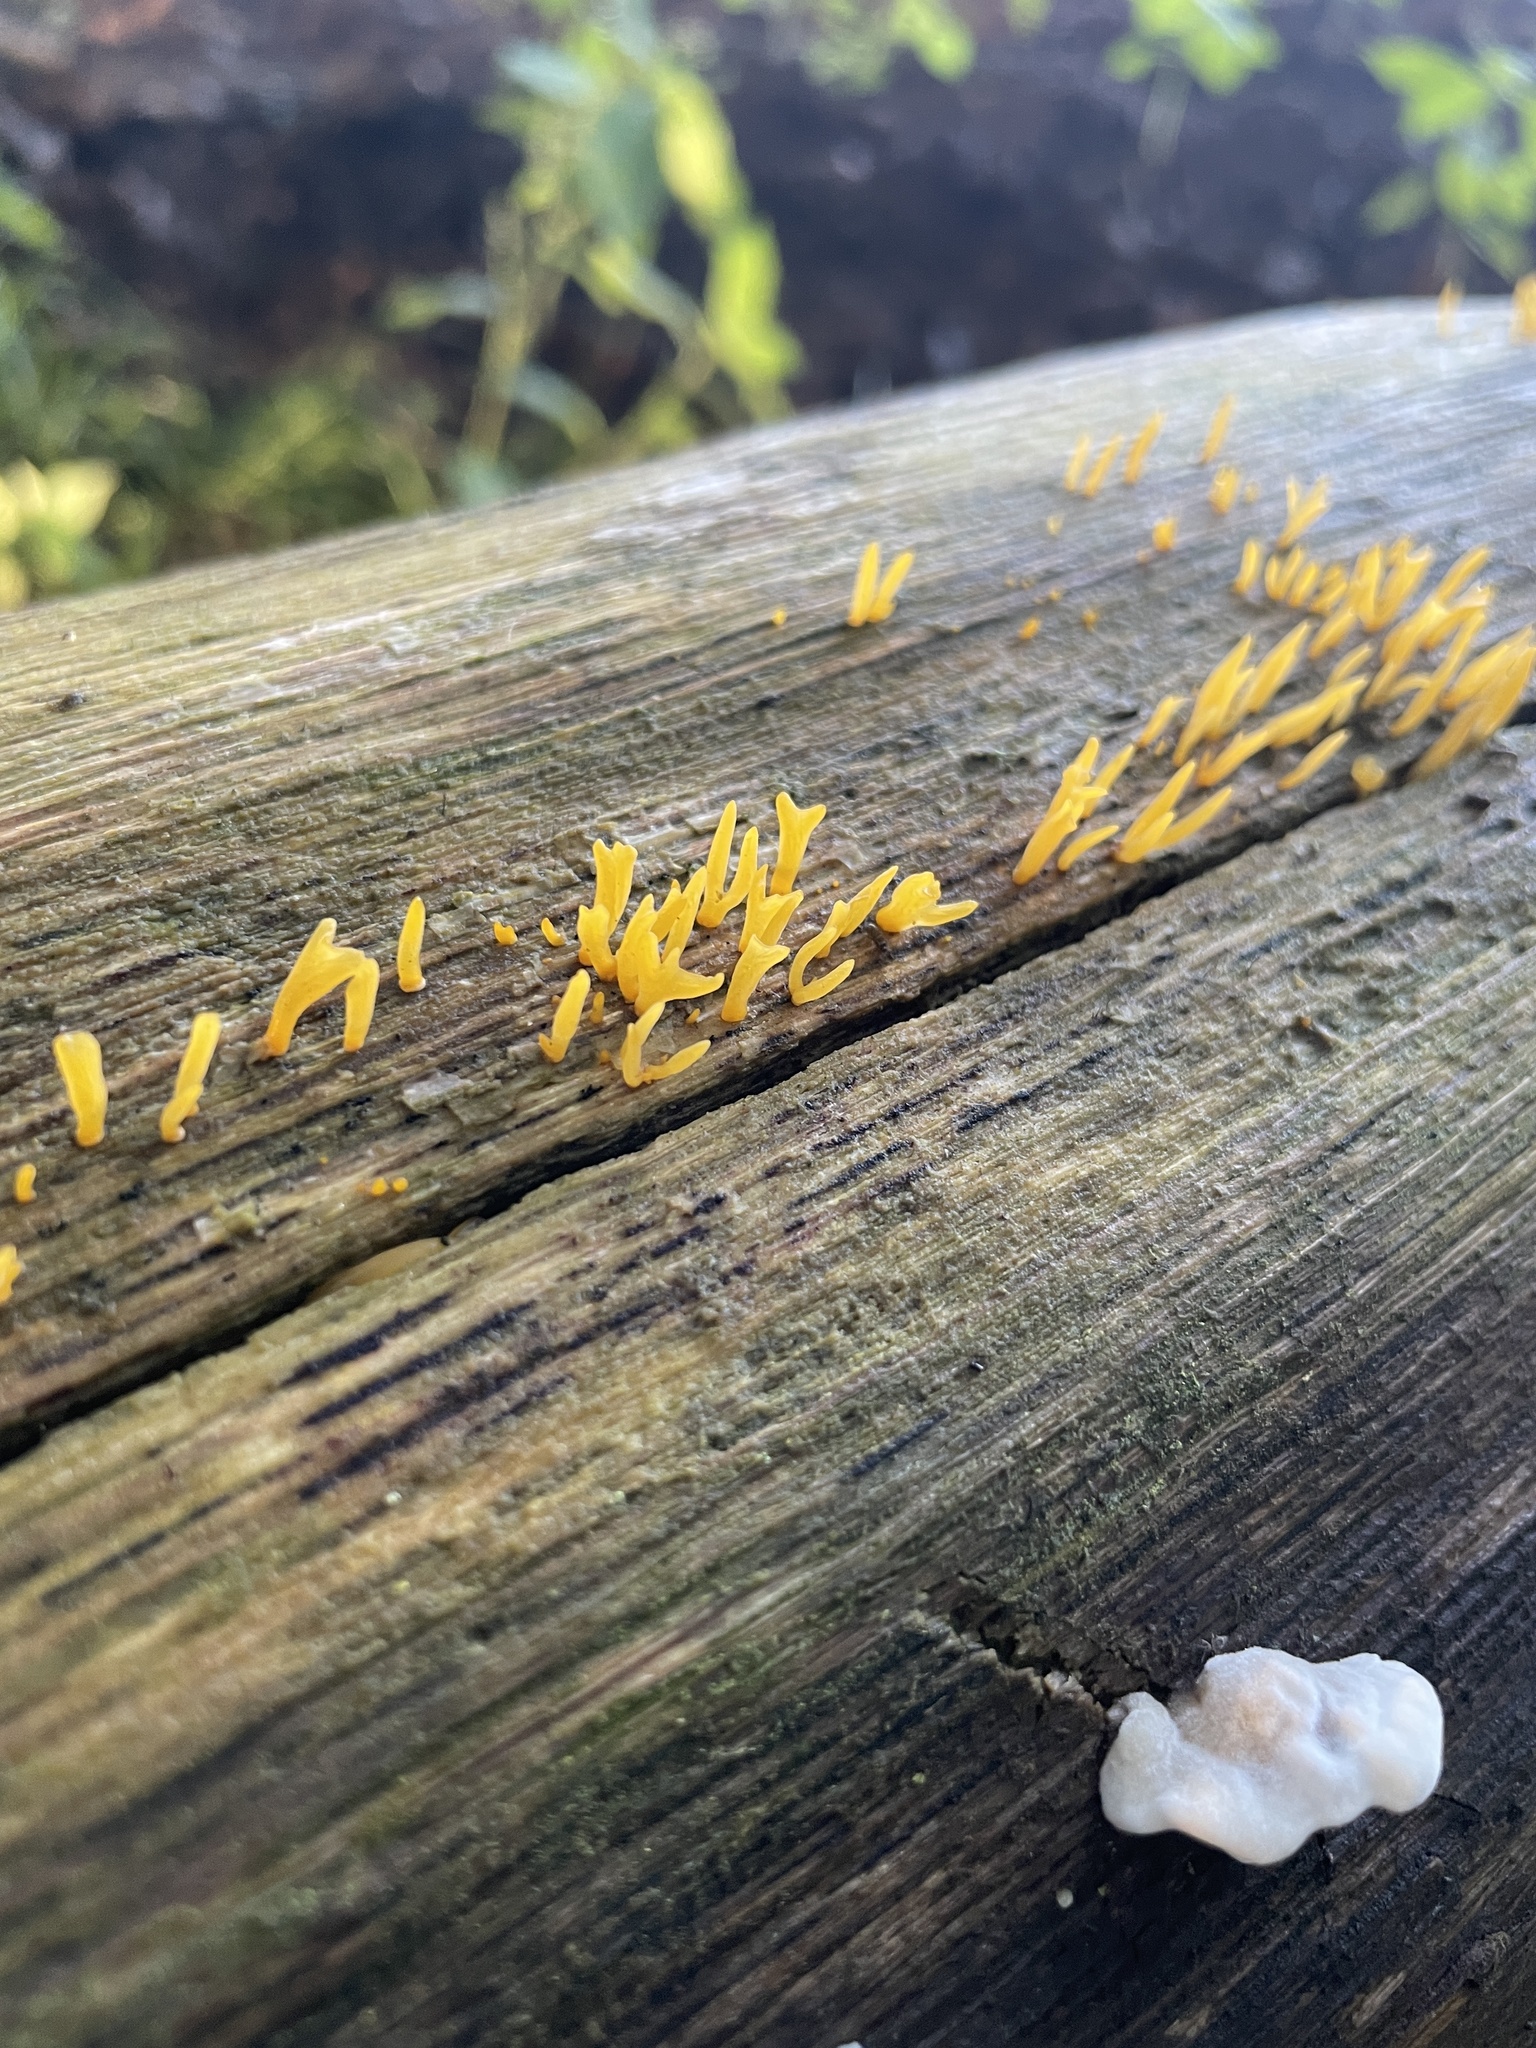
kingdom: Fungi
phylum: Basidiomycota
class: Dacrymycetes
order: Dacrymycetales
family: Dacrymycetaceae
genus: Calocera
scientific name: Calocera cornea
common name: Small stagshorn
